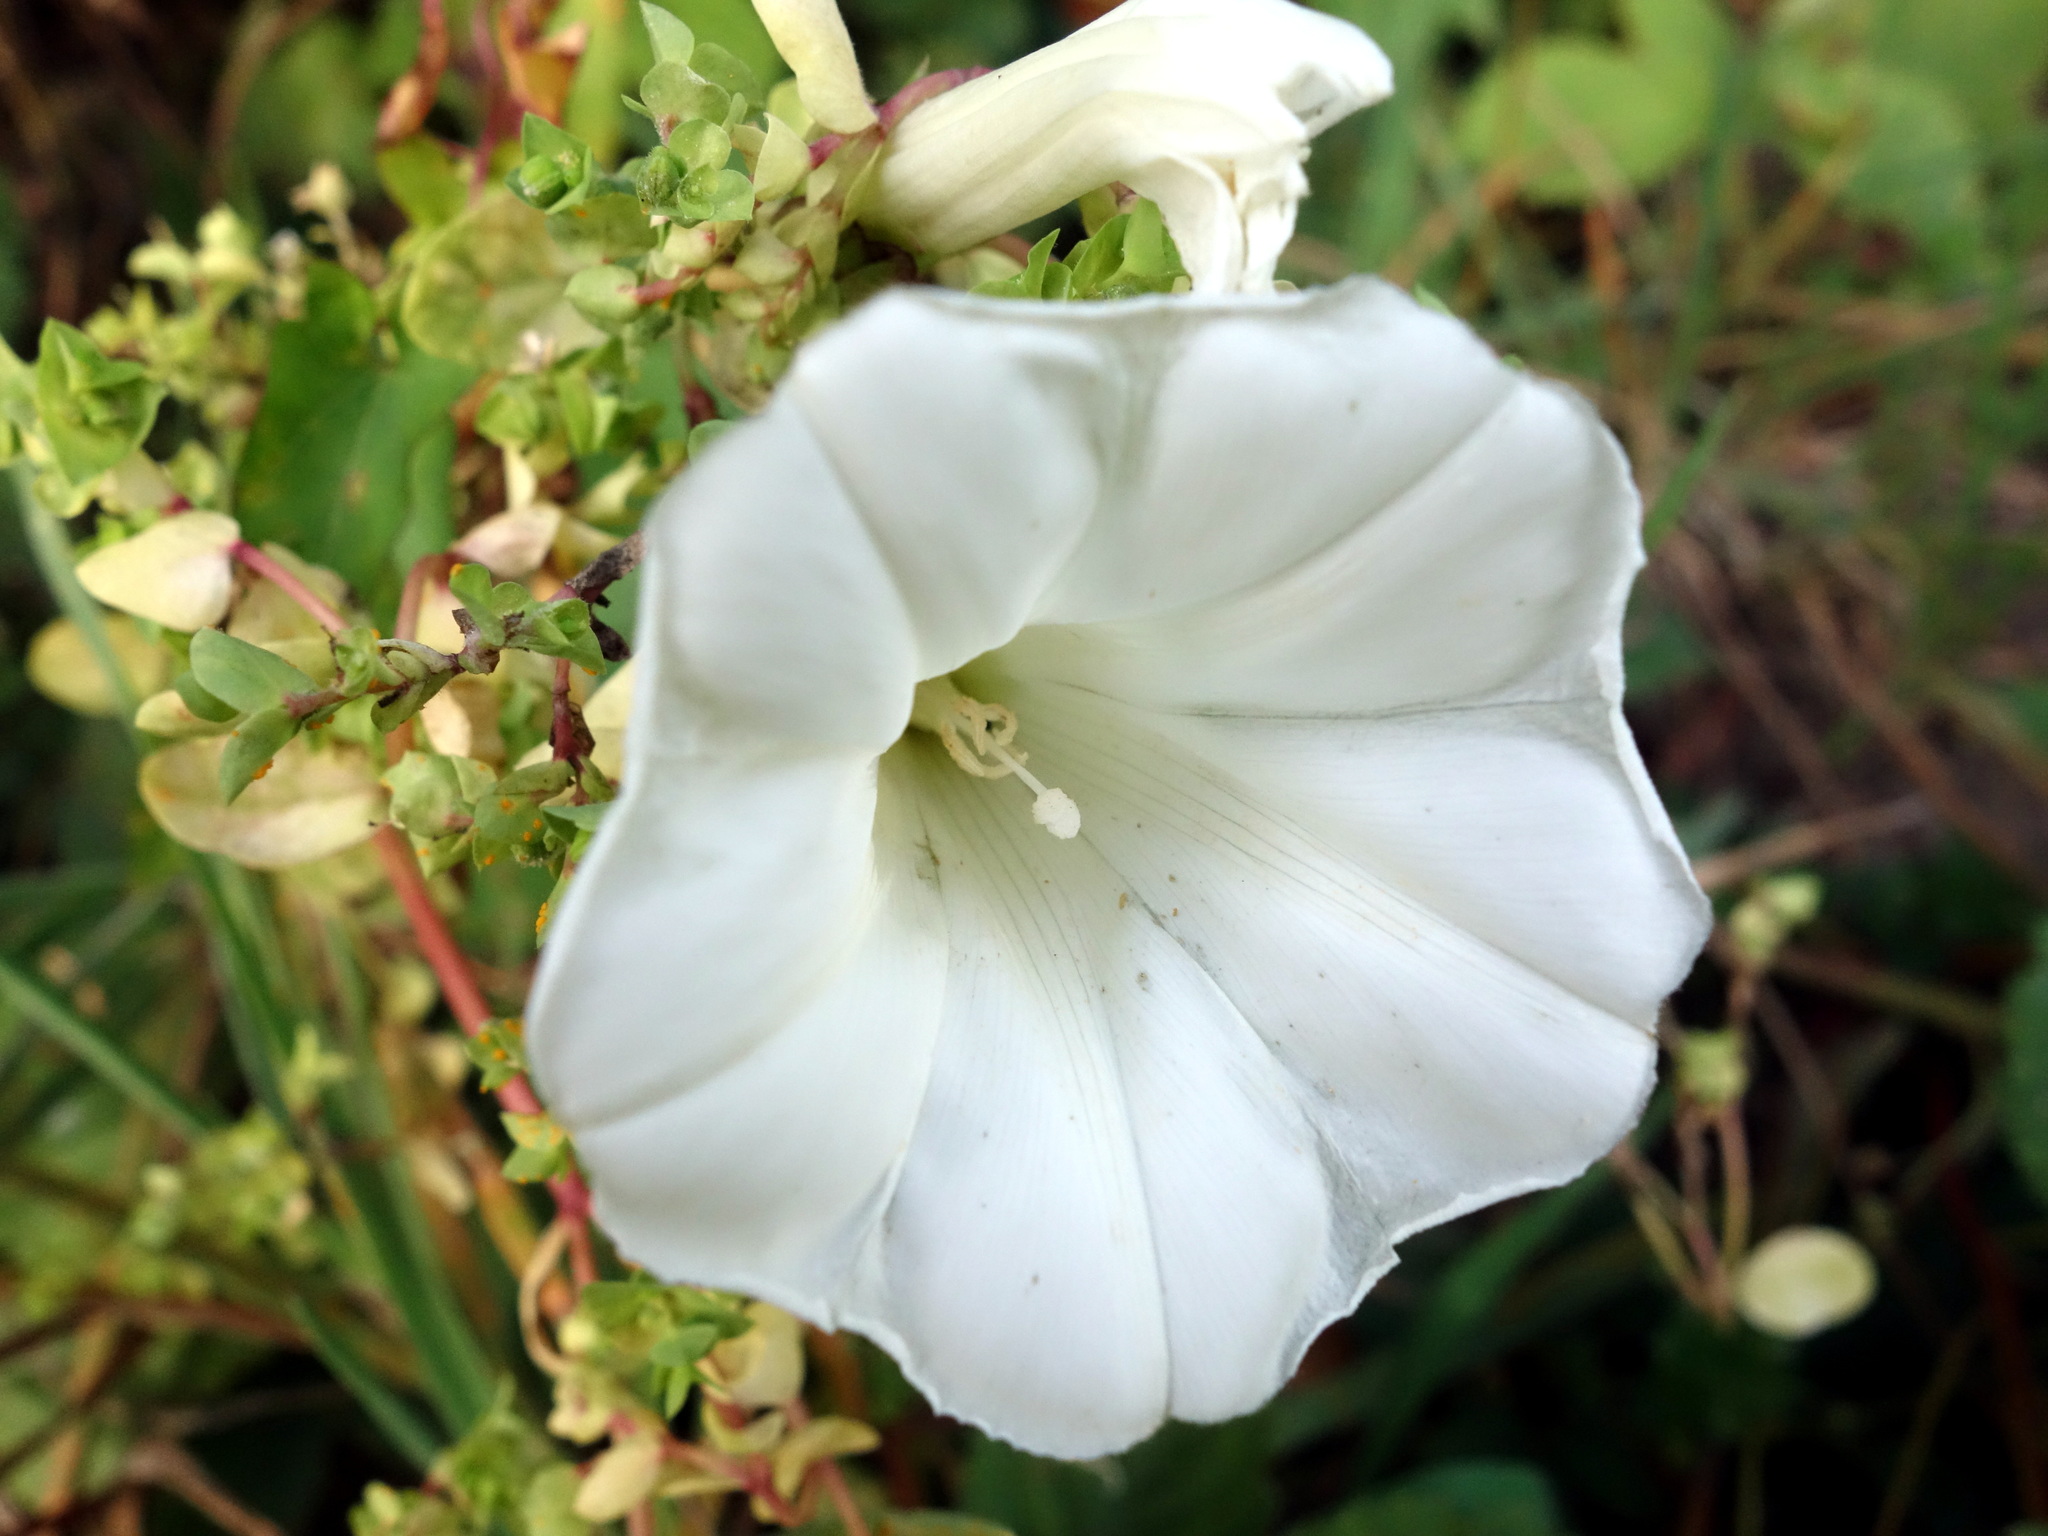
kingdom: Plantae
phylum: Tracheophyta
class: Magnoliopsida
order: Solanales
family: Convolvulaceae
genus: Calystegia
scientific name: Calystegia sepium
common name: Hedge bindweed
